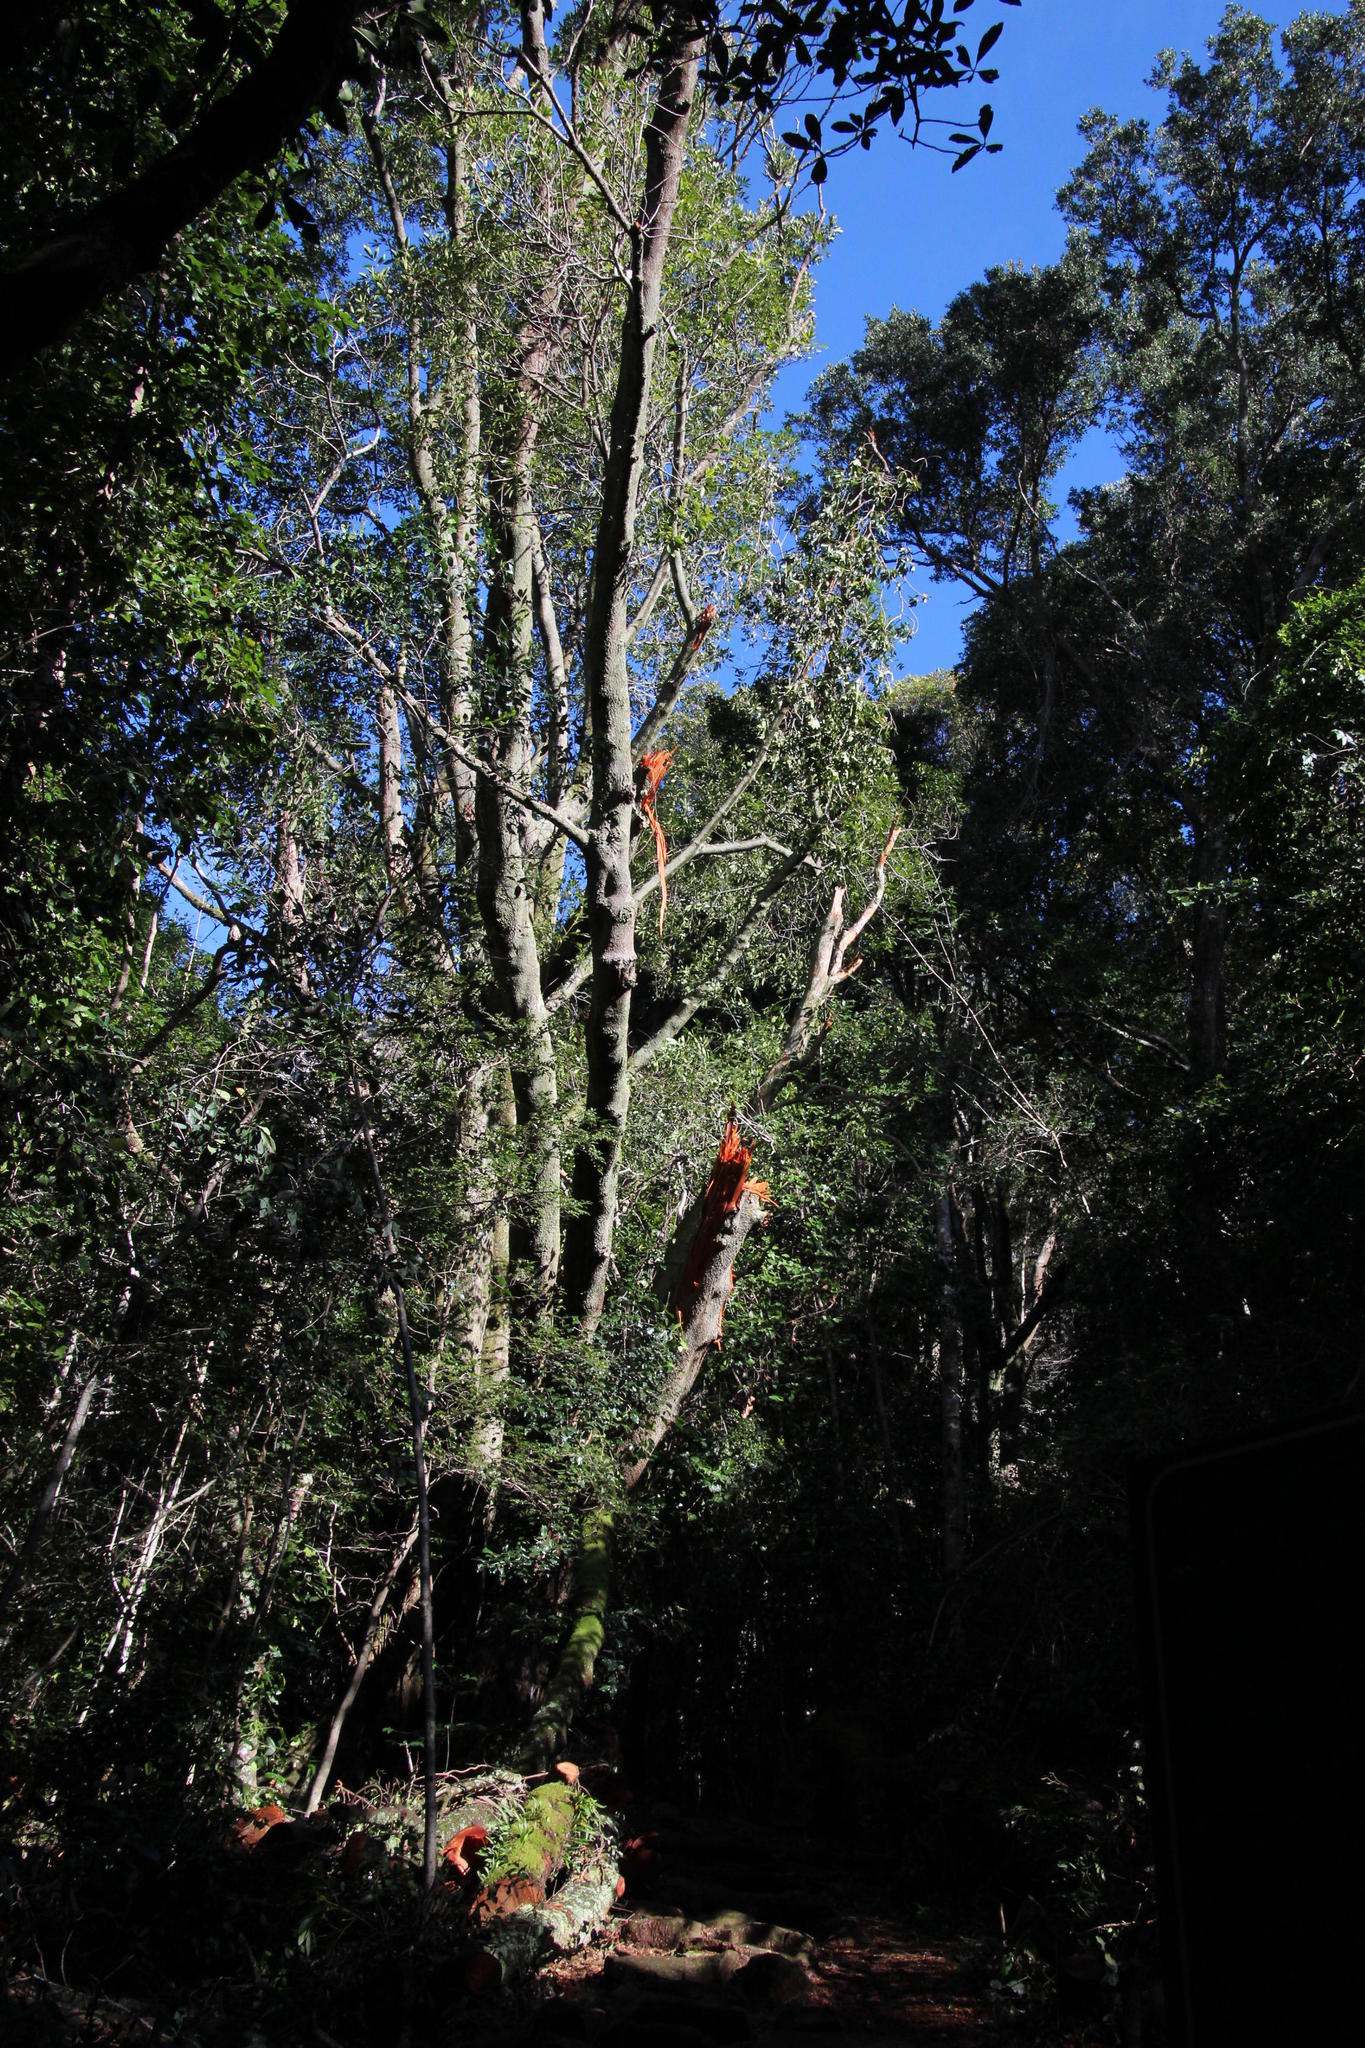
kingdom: Plantae
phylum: Tracheophyta
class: Magnoliopsida
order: Oxalidales
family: Cunoniaceae
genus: Cunonia
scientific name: Cunonia capensis
